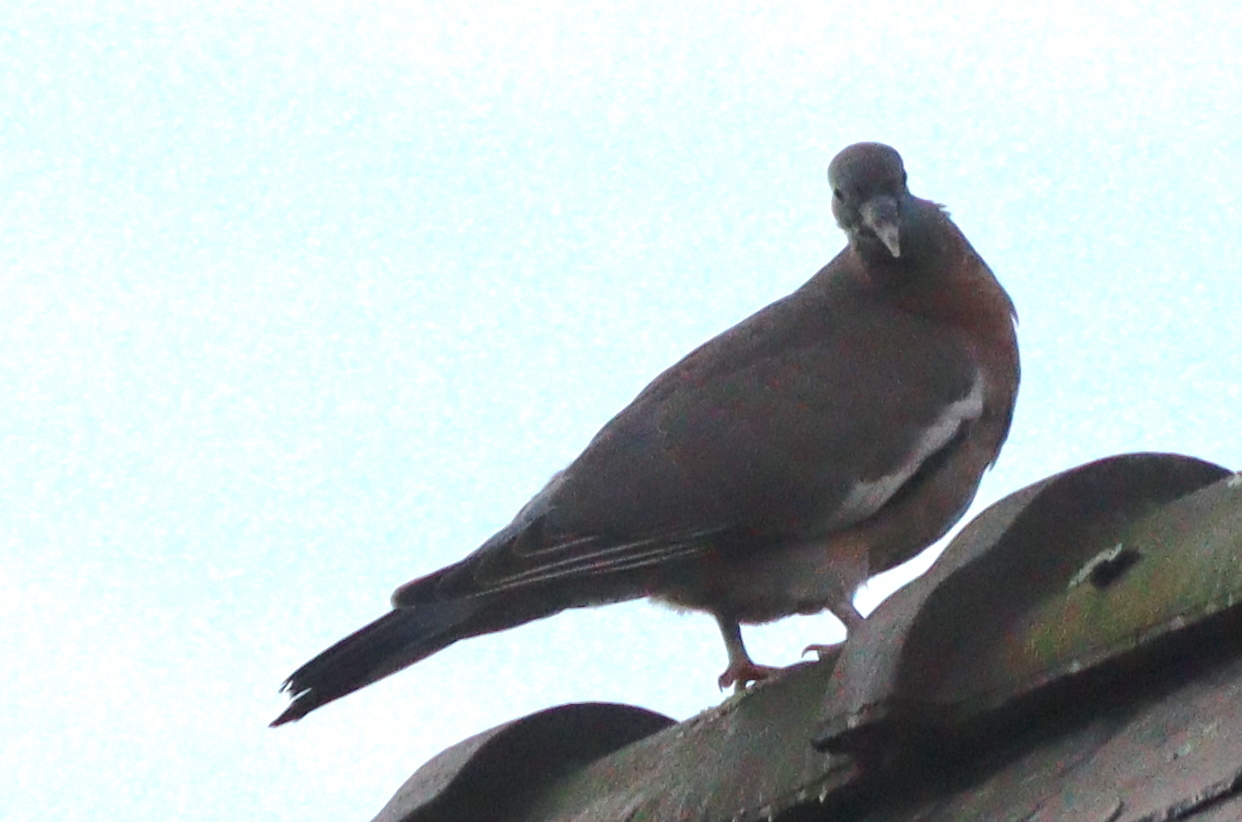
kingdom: Animalia
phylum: Chordata
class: Aves
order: Columbiformes
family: Columbidae
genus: Columba
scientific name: Columba palumbus
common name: Common wood pigeon
